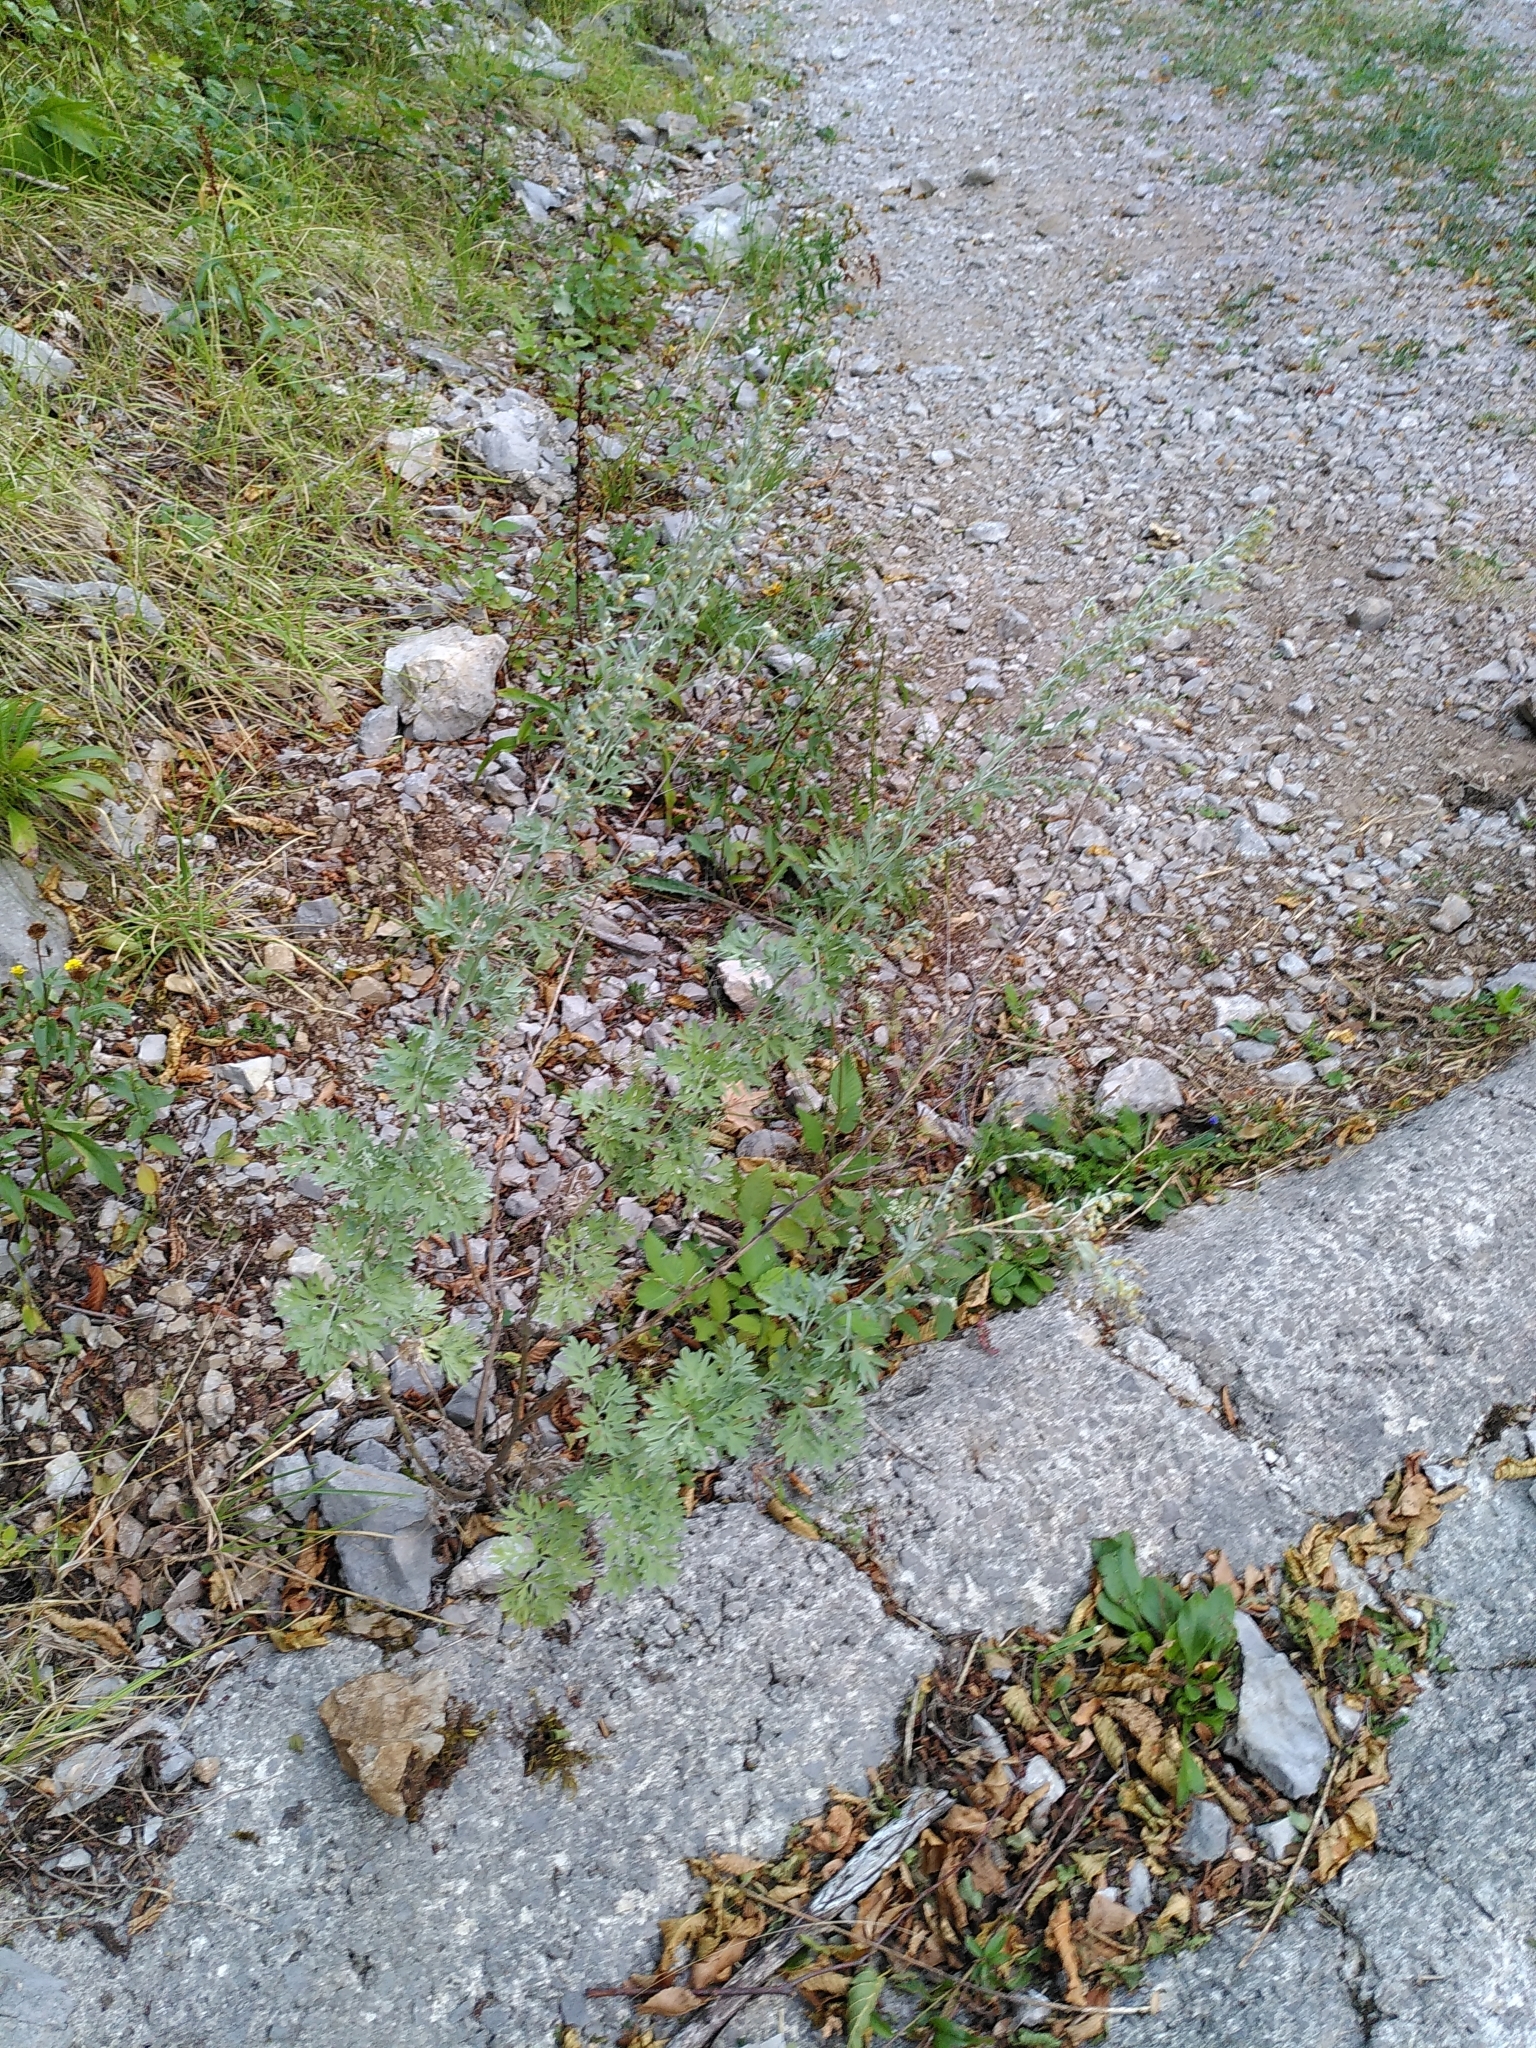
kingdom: Plantae
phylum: Tracheophyta
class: Magnoliopsida
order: Asterales
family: Asteraceae
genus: Artemisia
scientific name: Artemisia absinthium
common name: Wormwood
